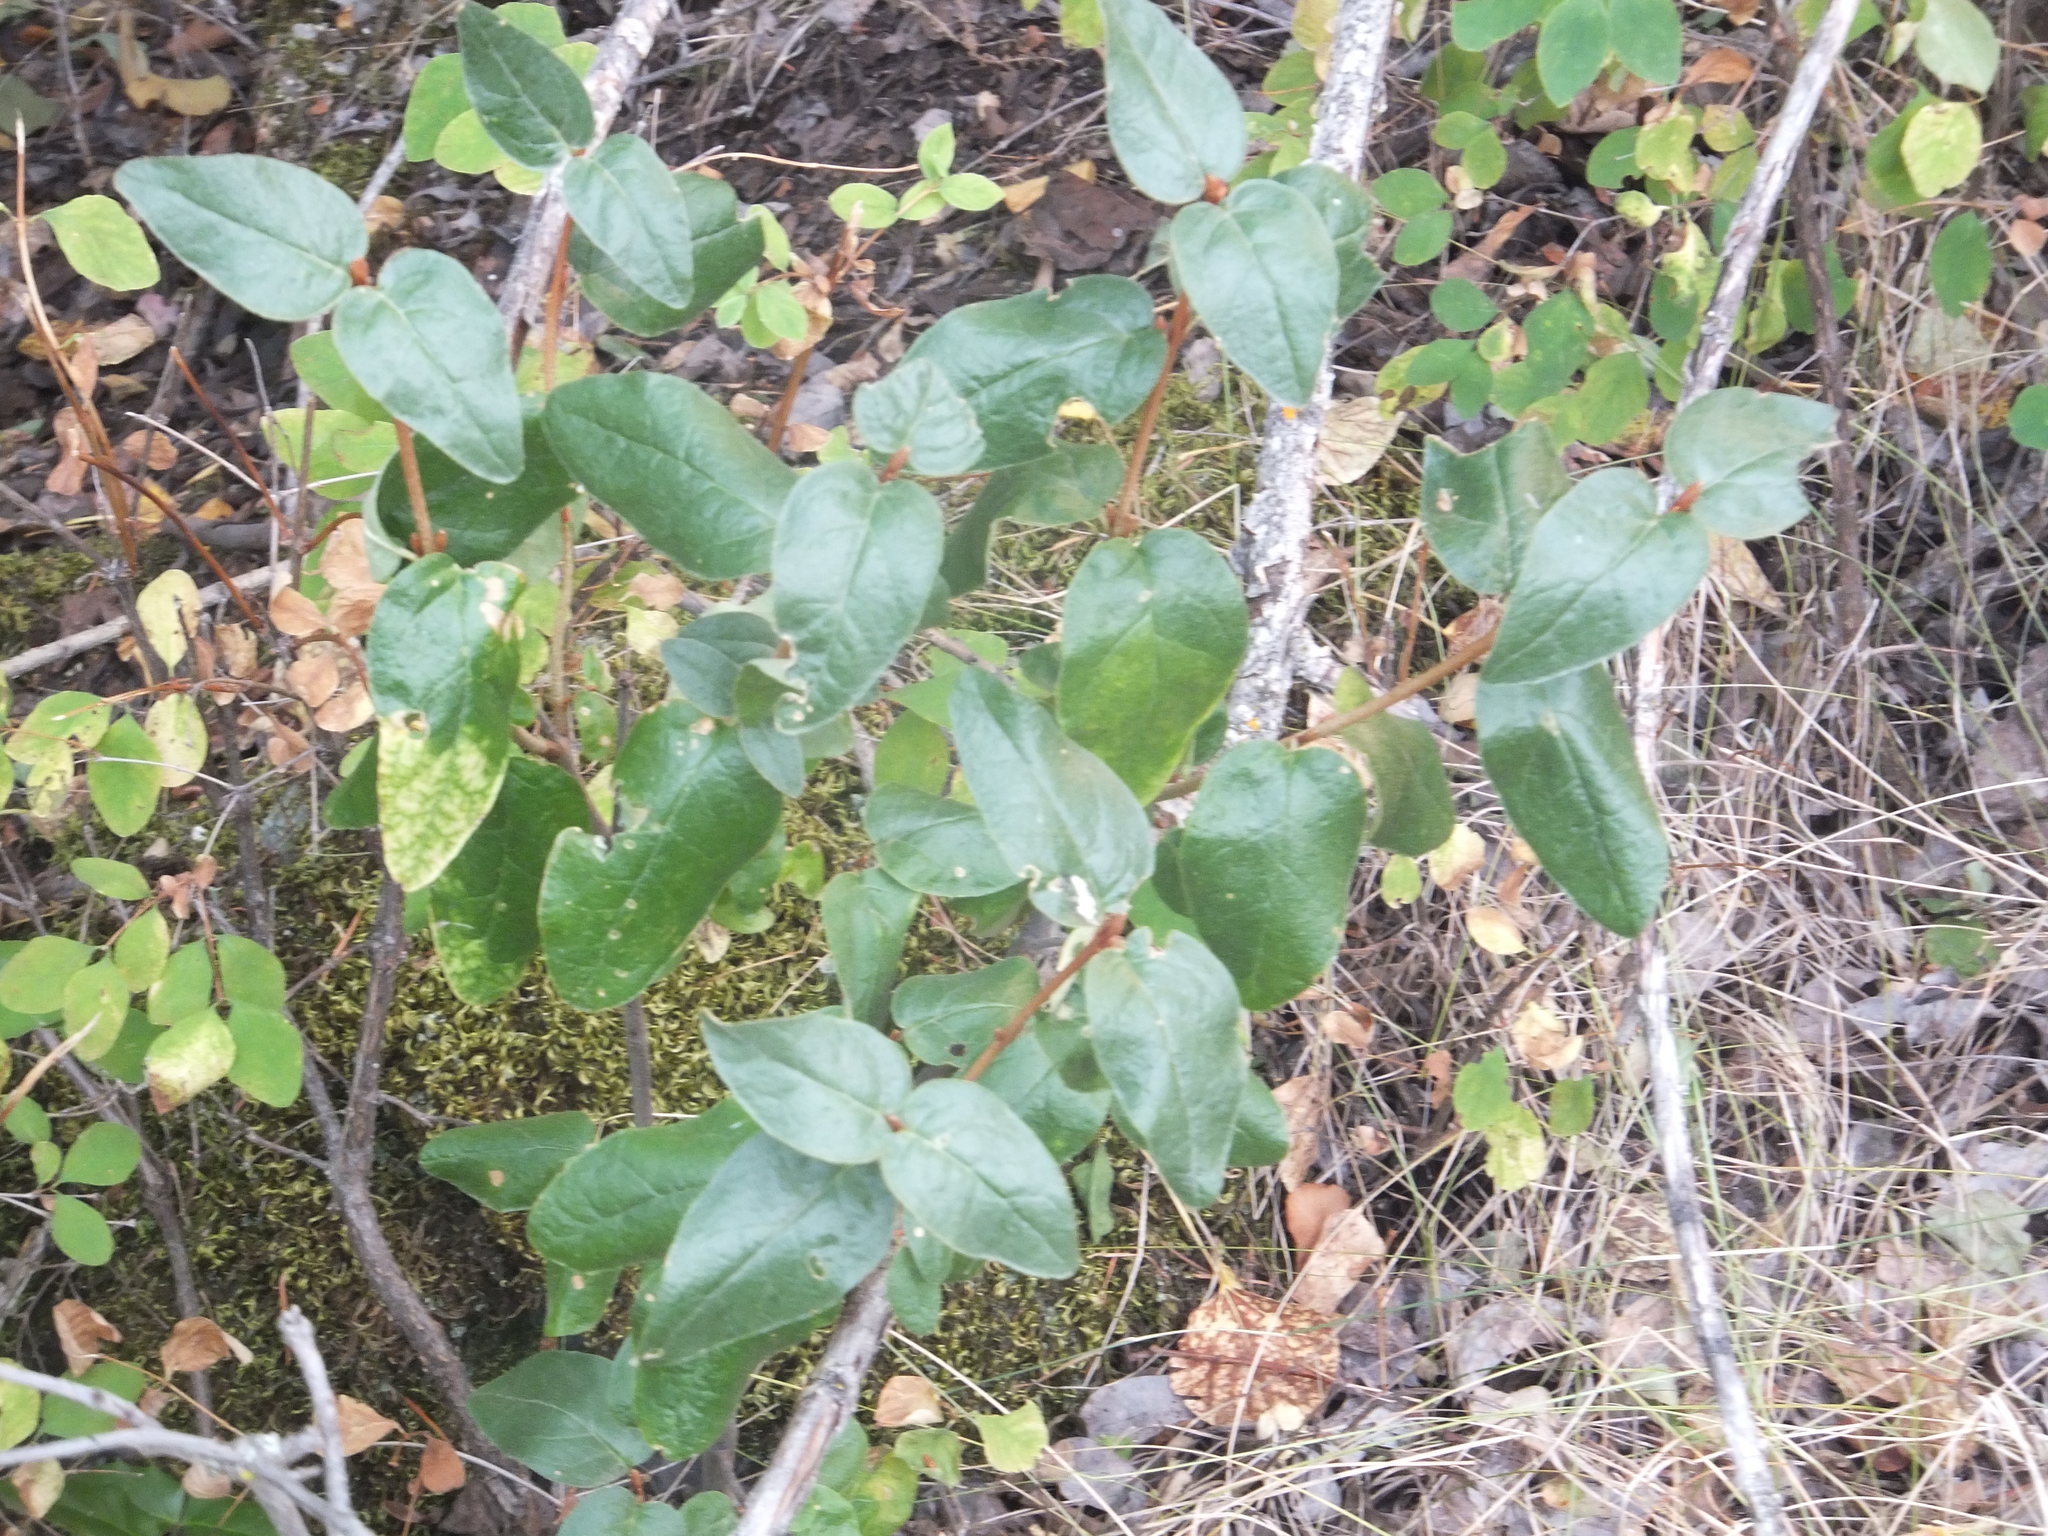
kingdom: Plantae
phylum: Tracheophyta
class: Magnoliopsida
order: Rosales
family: Elaeagnaceae
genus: Shepherdia
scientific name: Shepherdia canadensis
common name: Soapberry
